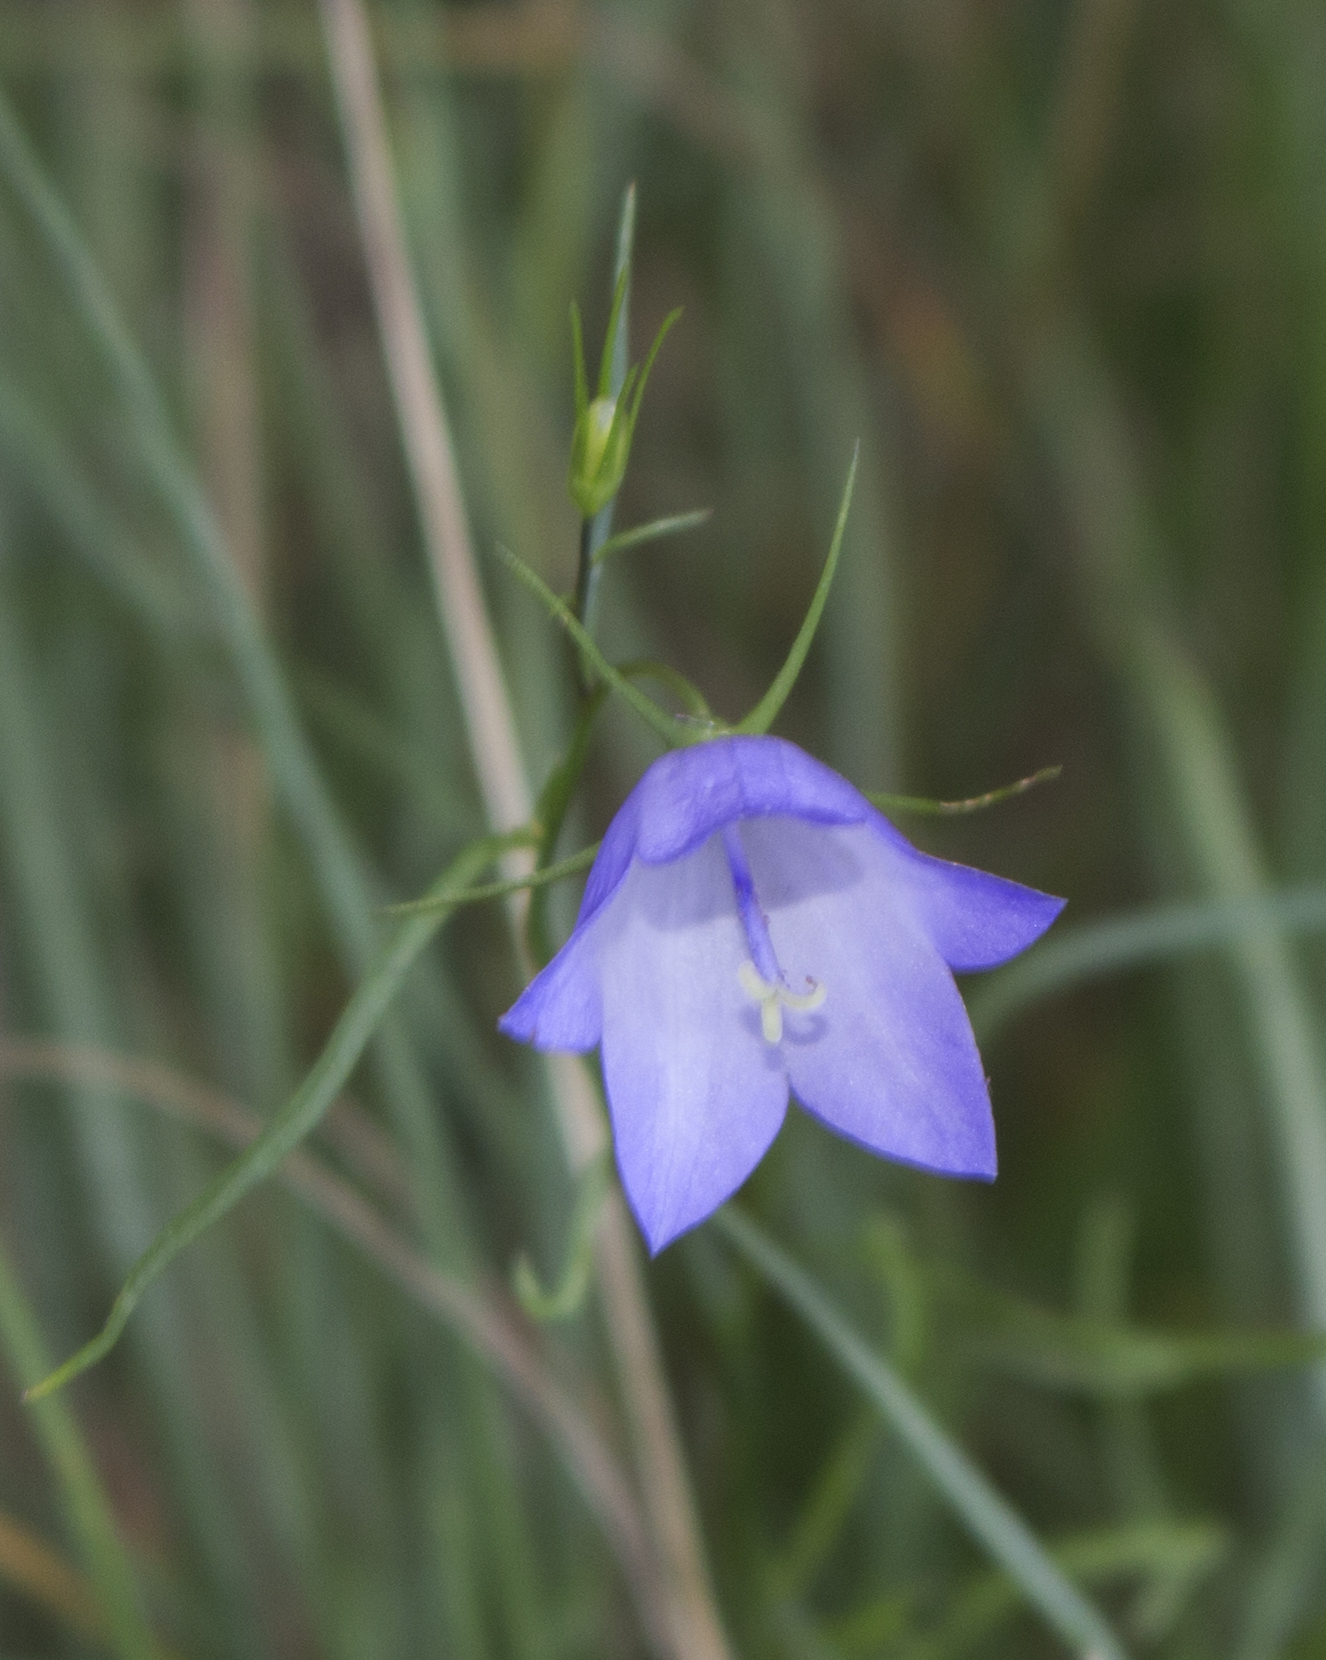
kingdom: Plantae
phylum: Tracheophyta
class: Magnoliopsida
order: Asterales
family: Campanulaceae
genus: Campanula
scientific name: Campanula intercedens
